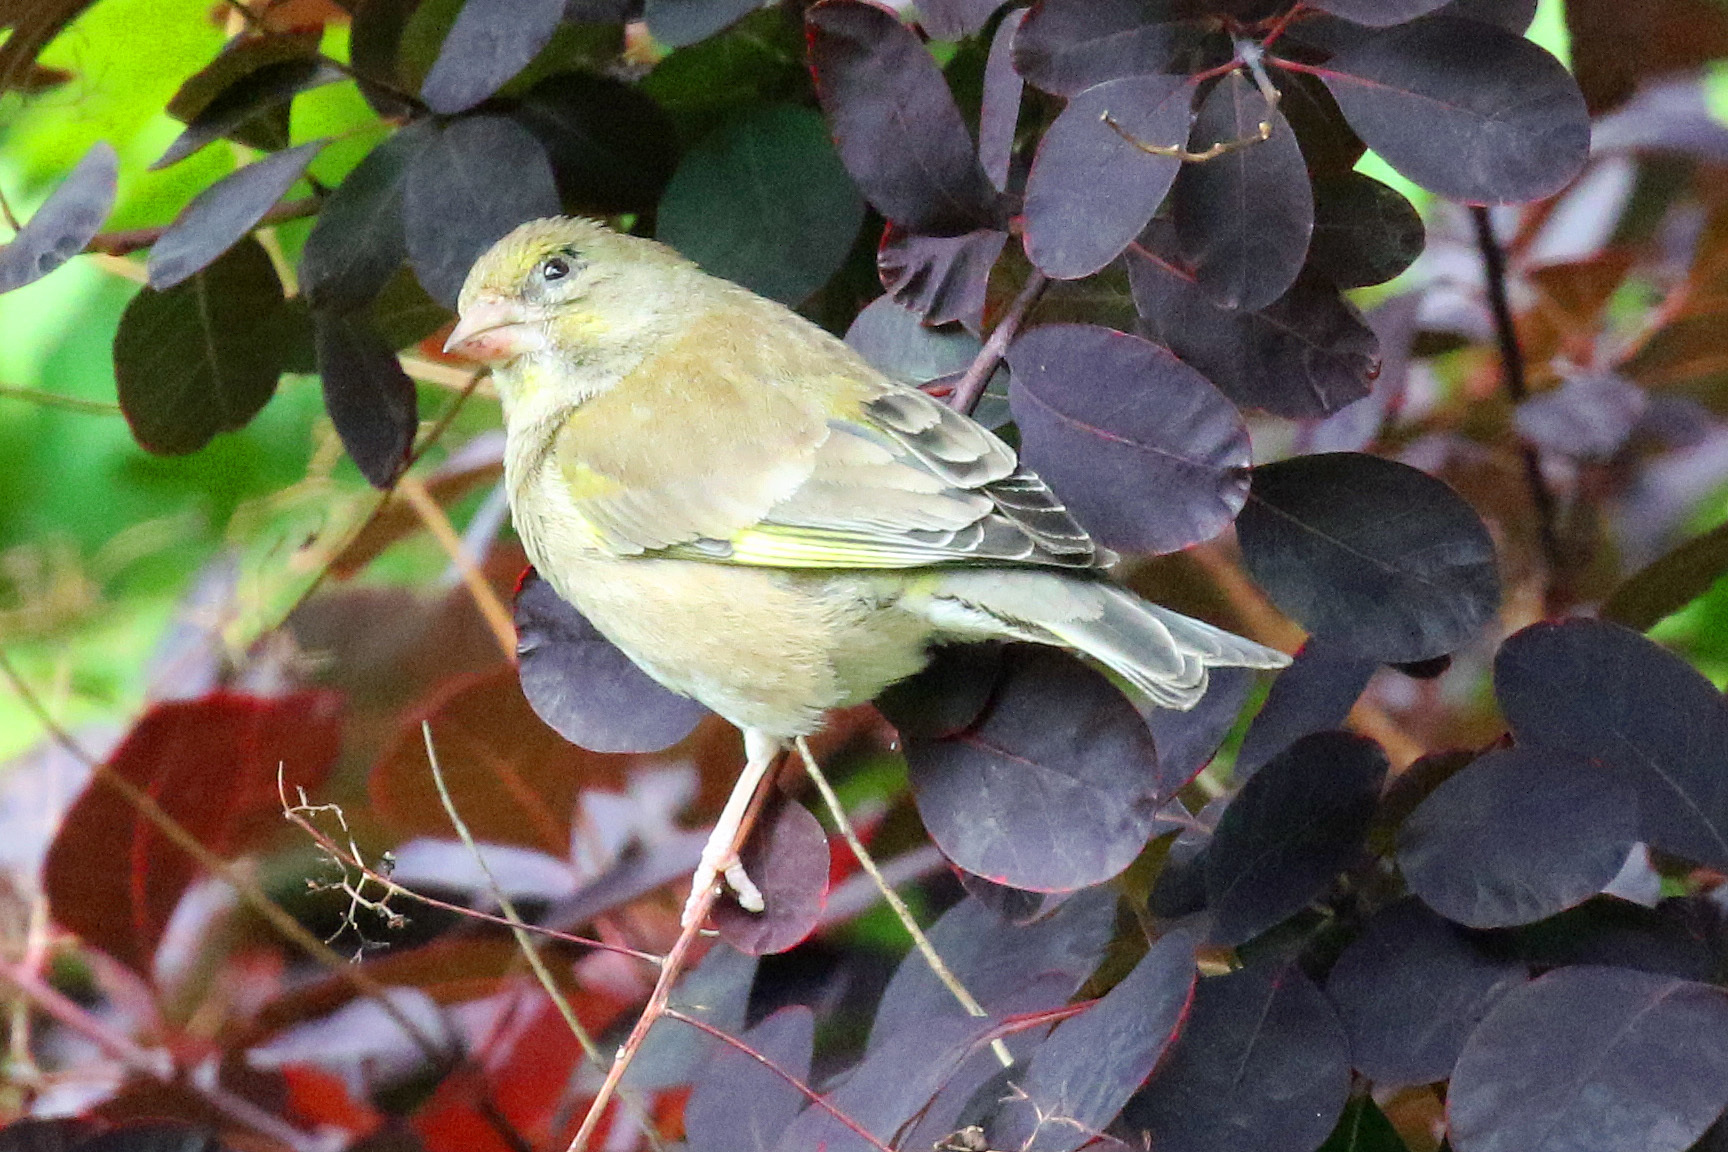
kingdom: Plantae
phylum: Tracheophyta
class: Liliopsida
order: Poales
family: Poaceae
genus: Chloris
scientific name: Chloris chloris
